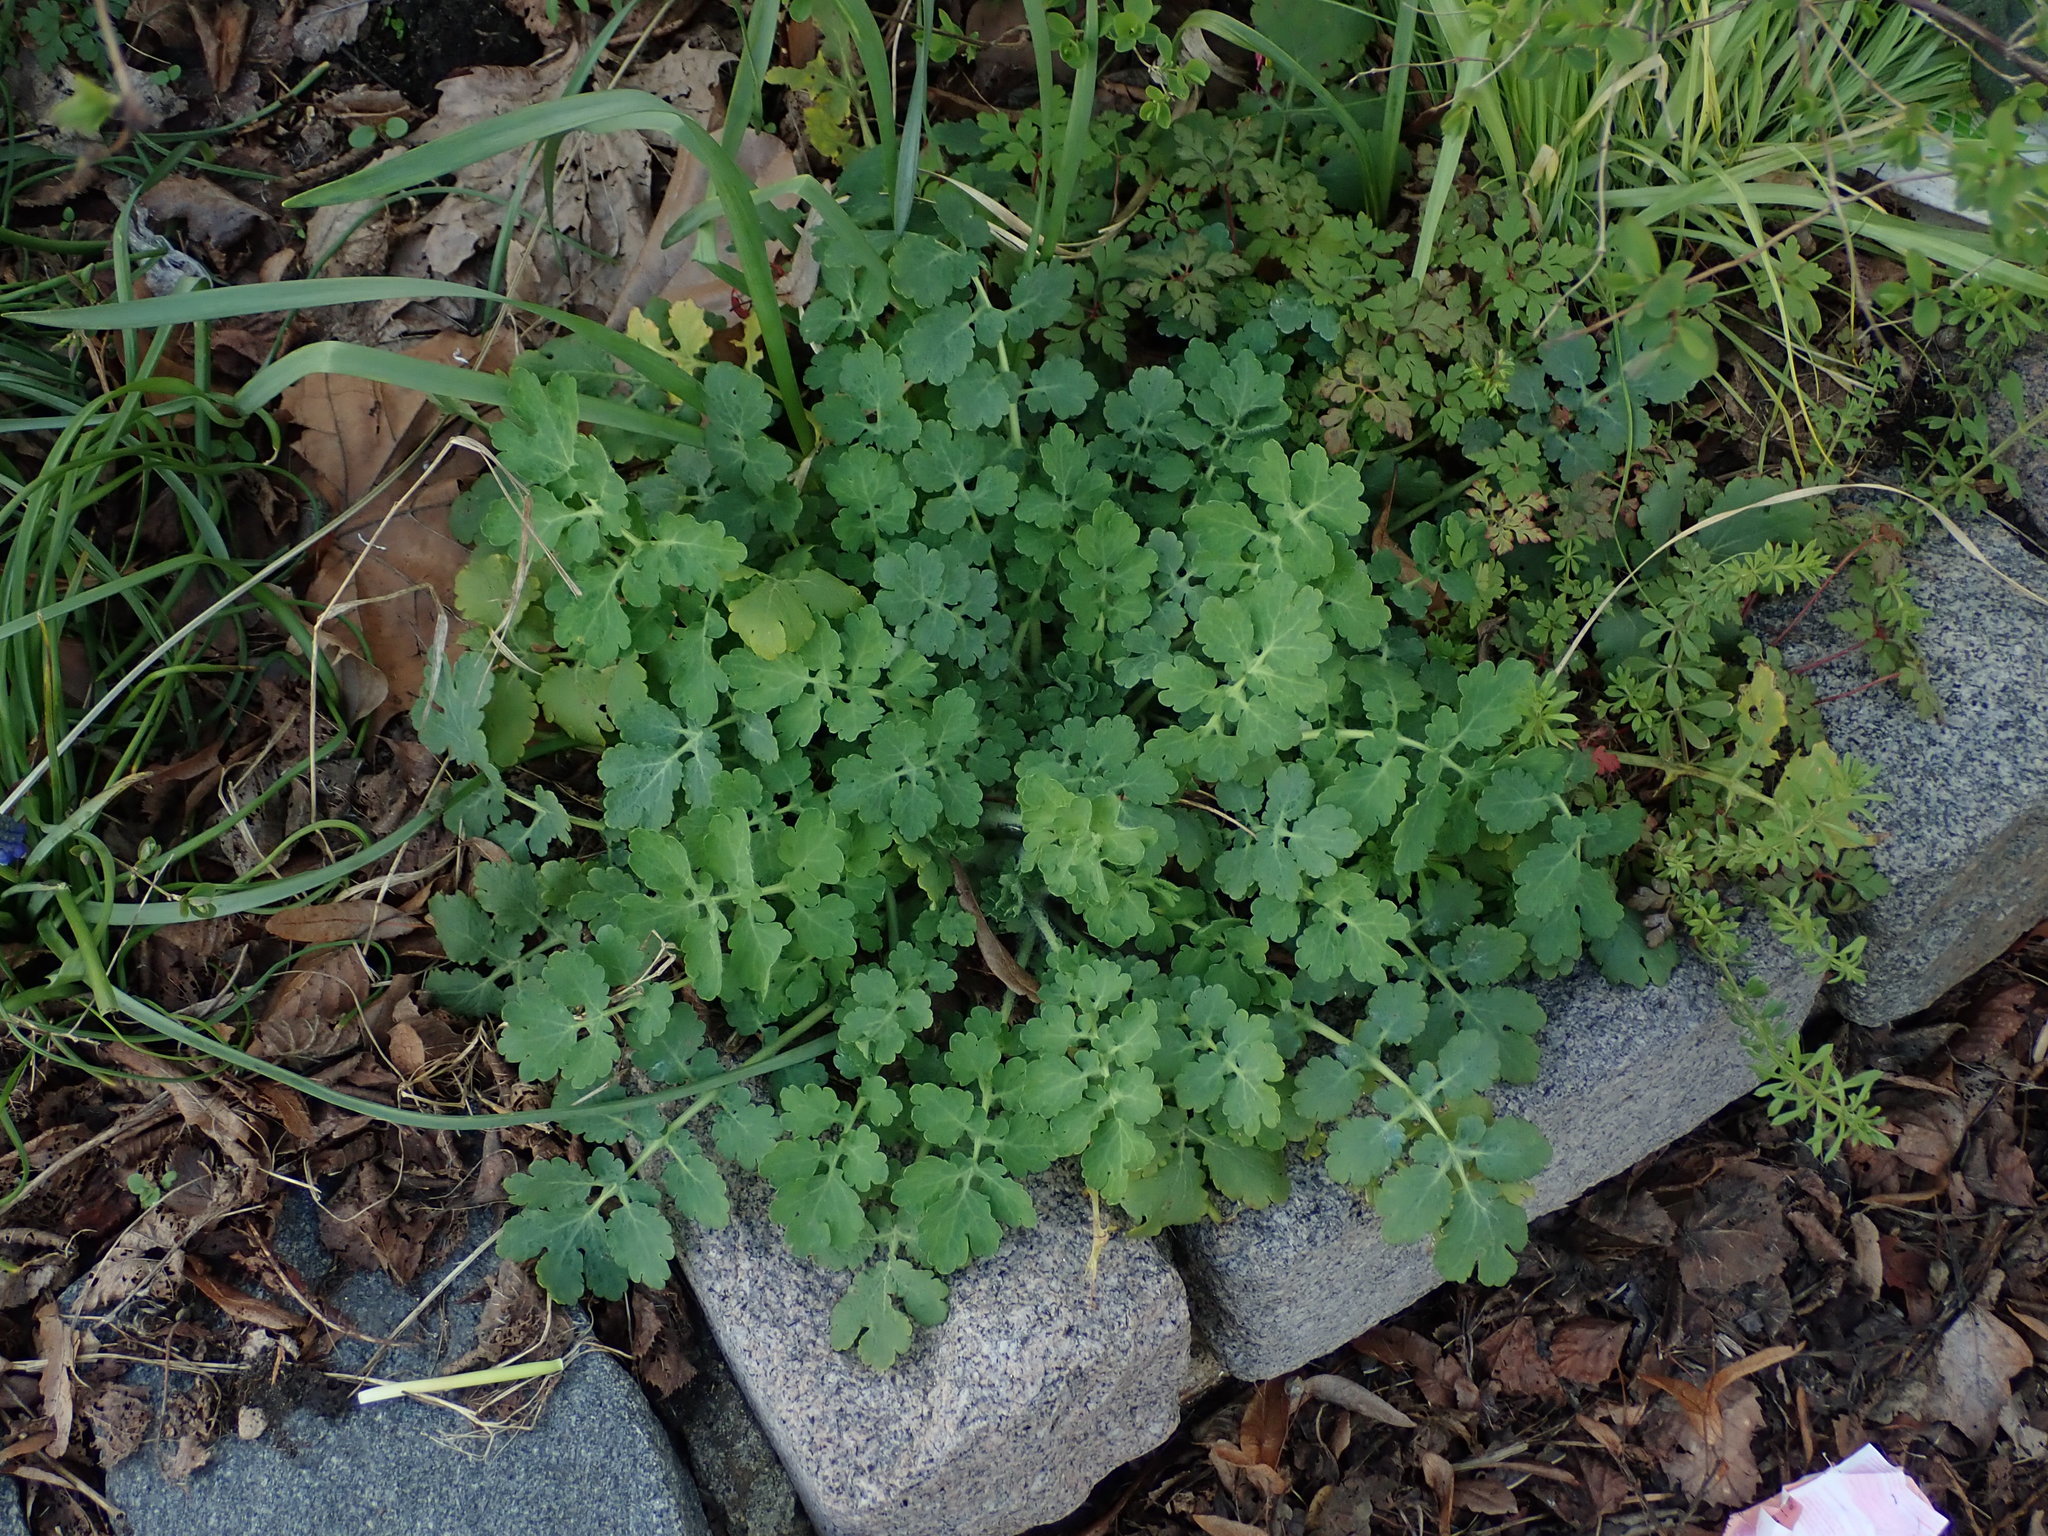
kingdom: Plantae
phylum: Tracheophyta
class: Magnoliopsida
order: Ranunculales
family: Papaveraceae
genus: Chelidonium
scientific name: Chelidonium majus
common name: Greater celandine
